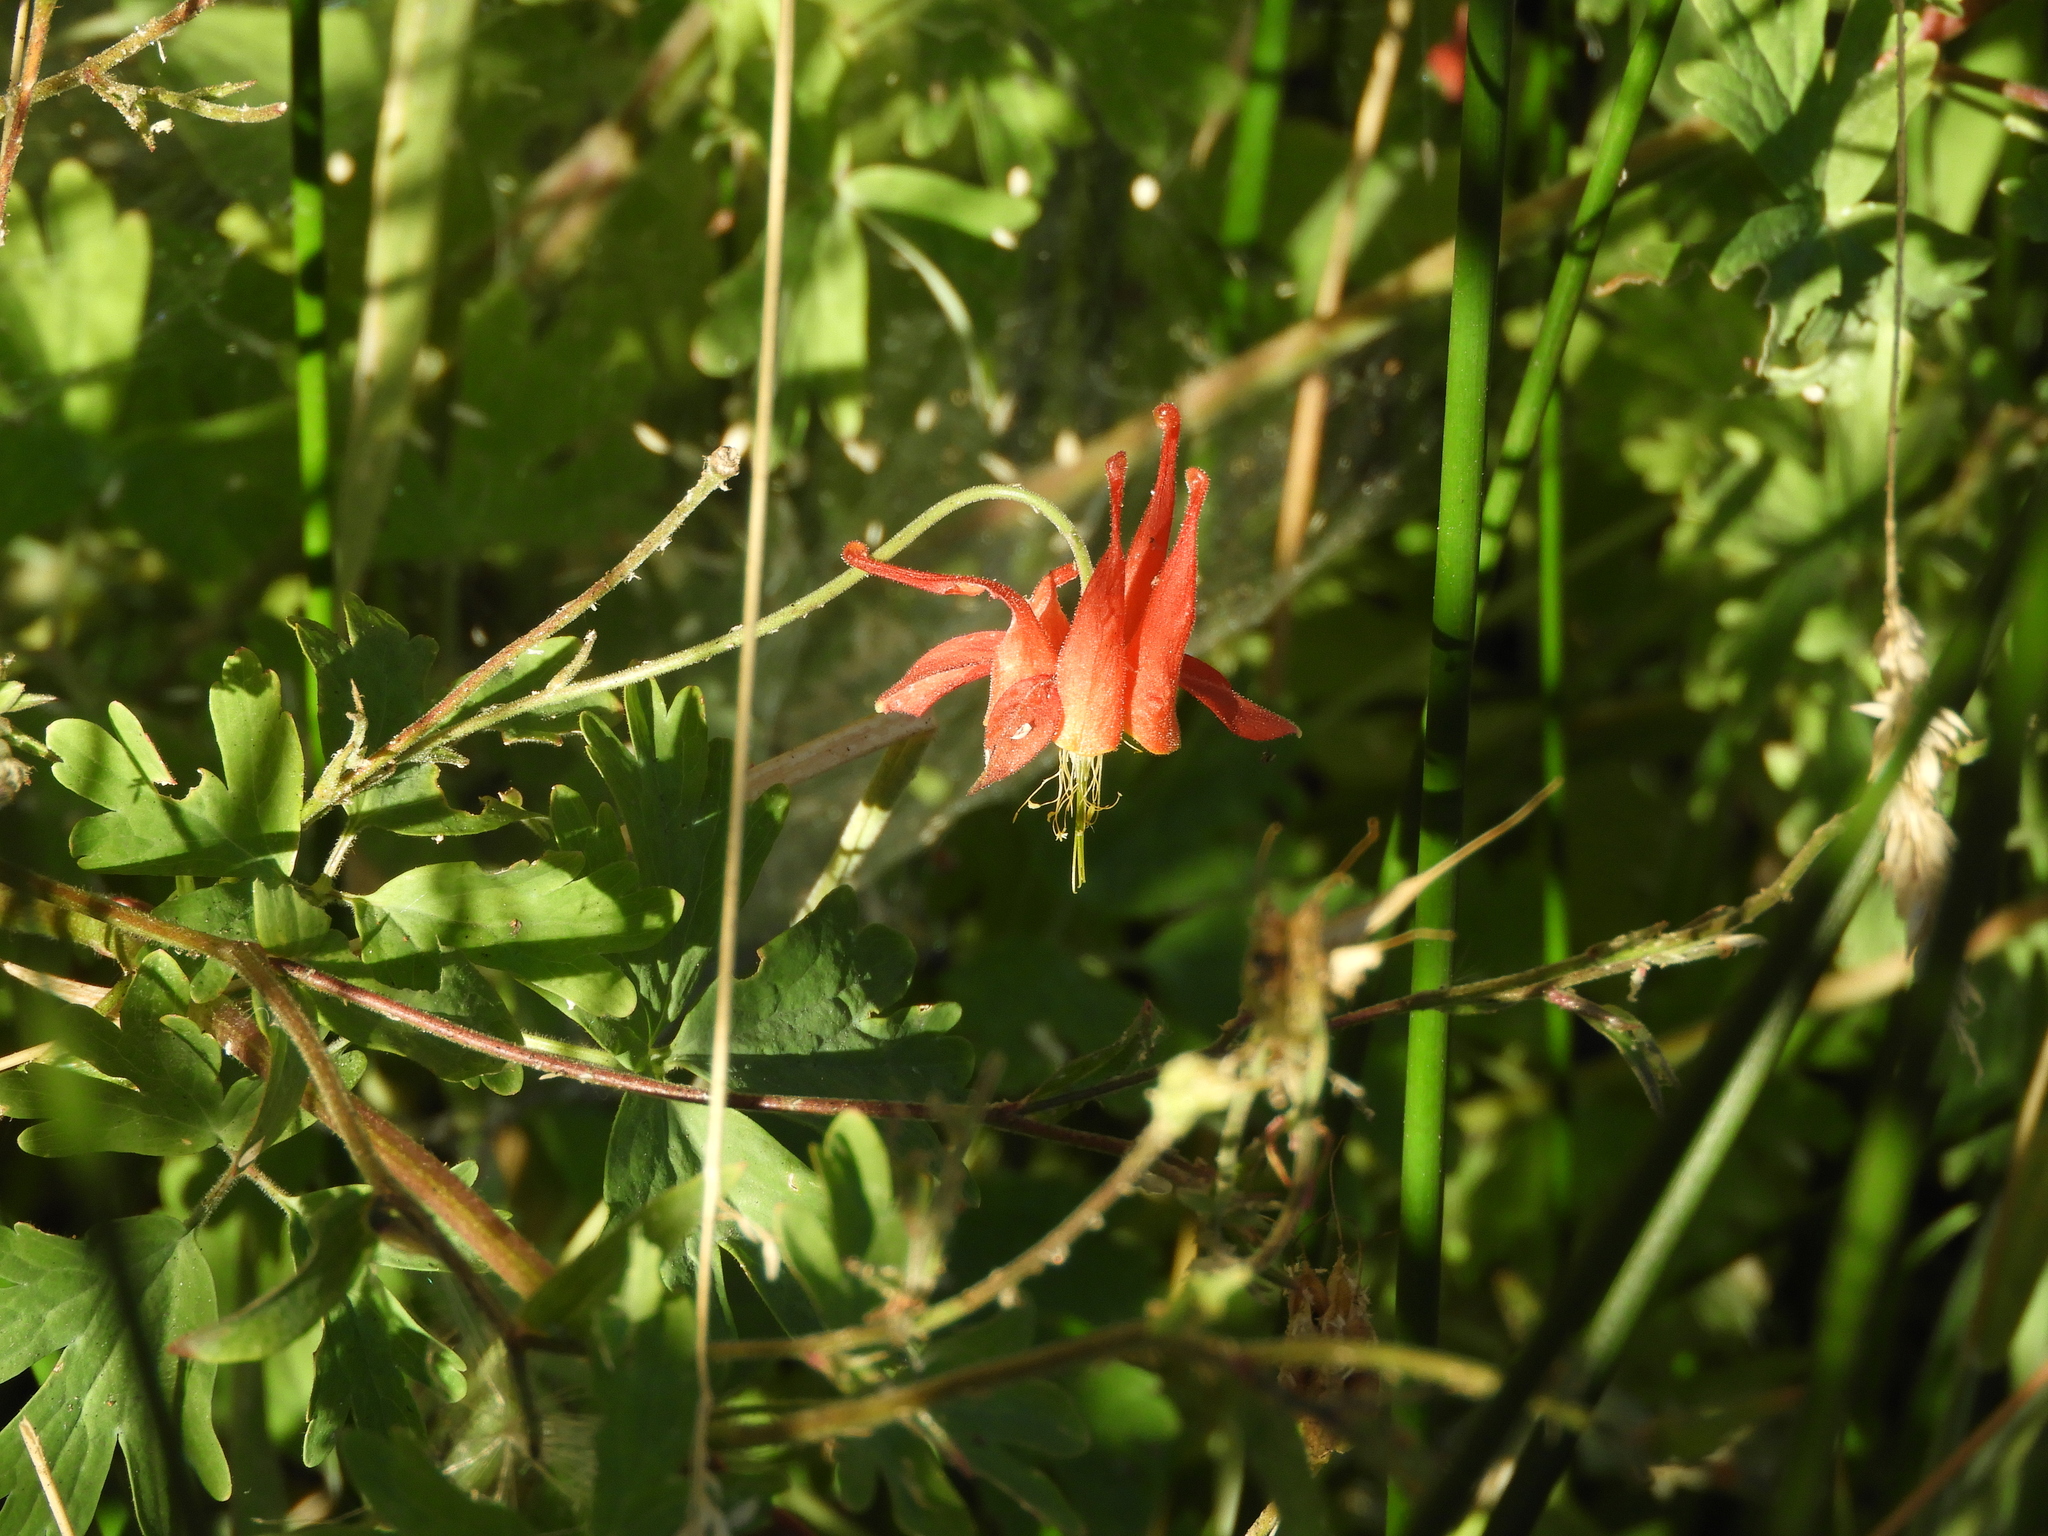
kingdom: Plantae
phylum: Tracheophyta
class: Magnoliopsida
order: Ranunculales
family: Ranunculaceae
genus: Aquilegia
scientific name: Aquilegia formosa
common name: Sitka columbine
